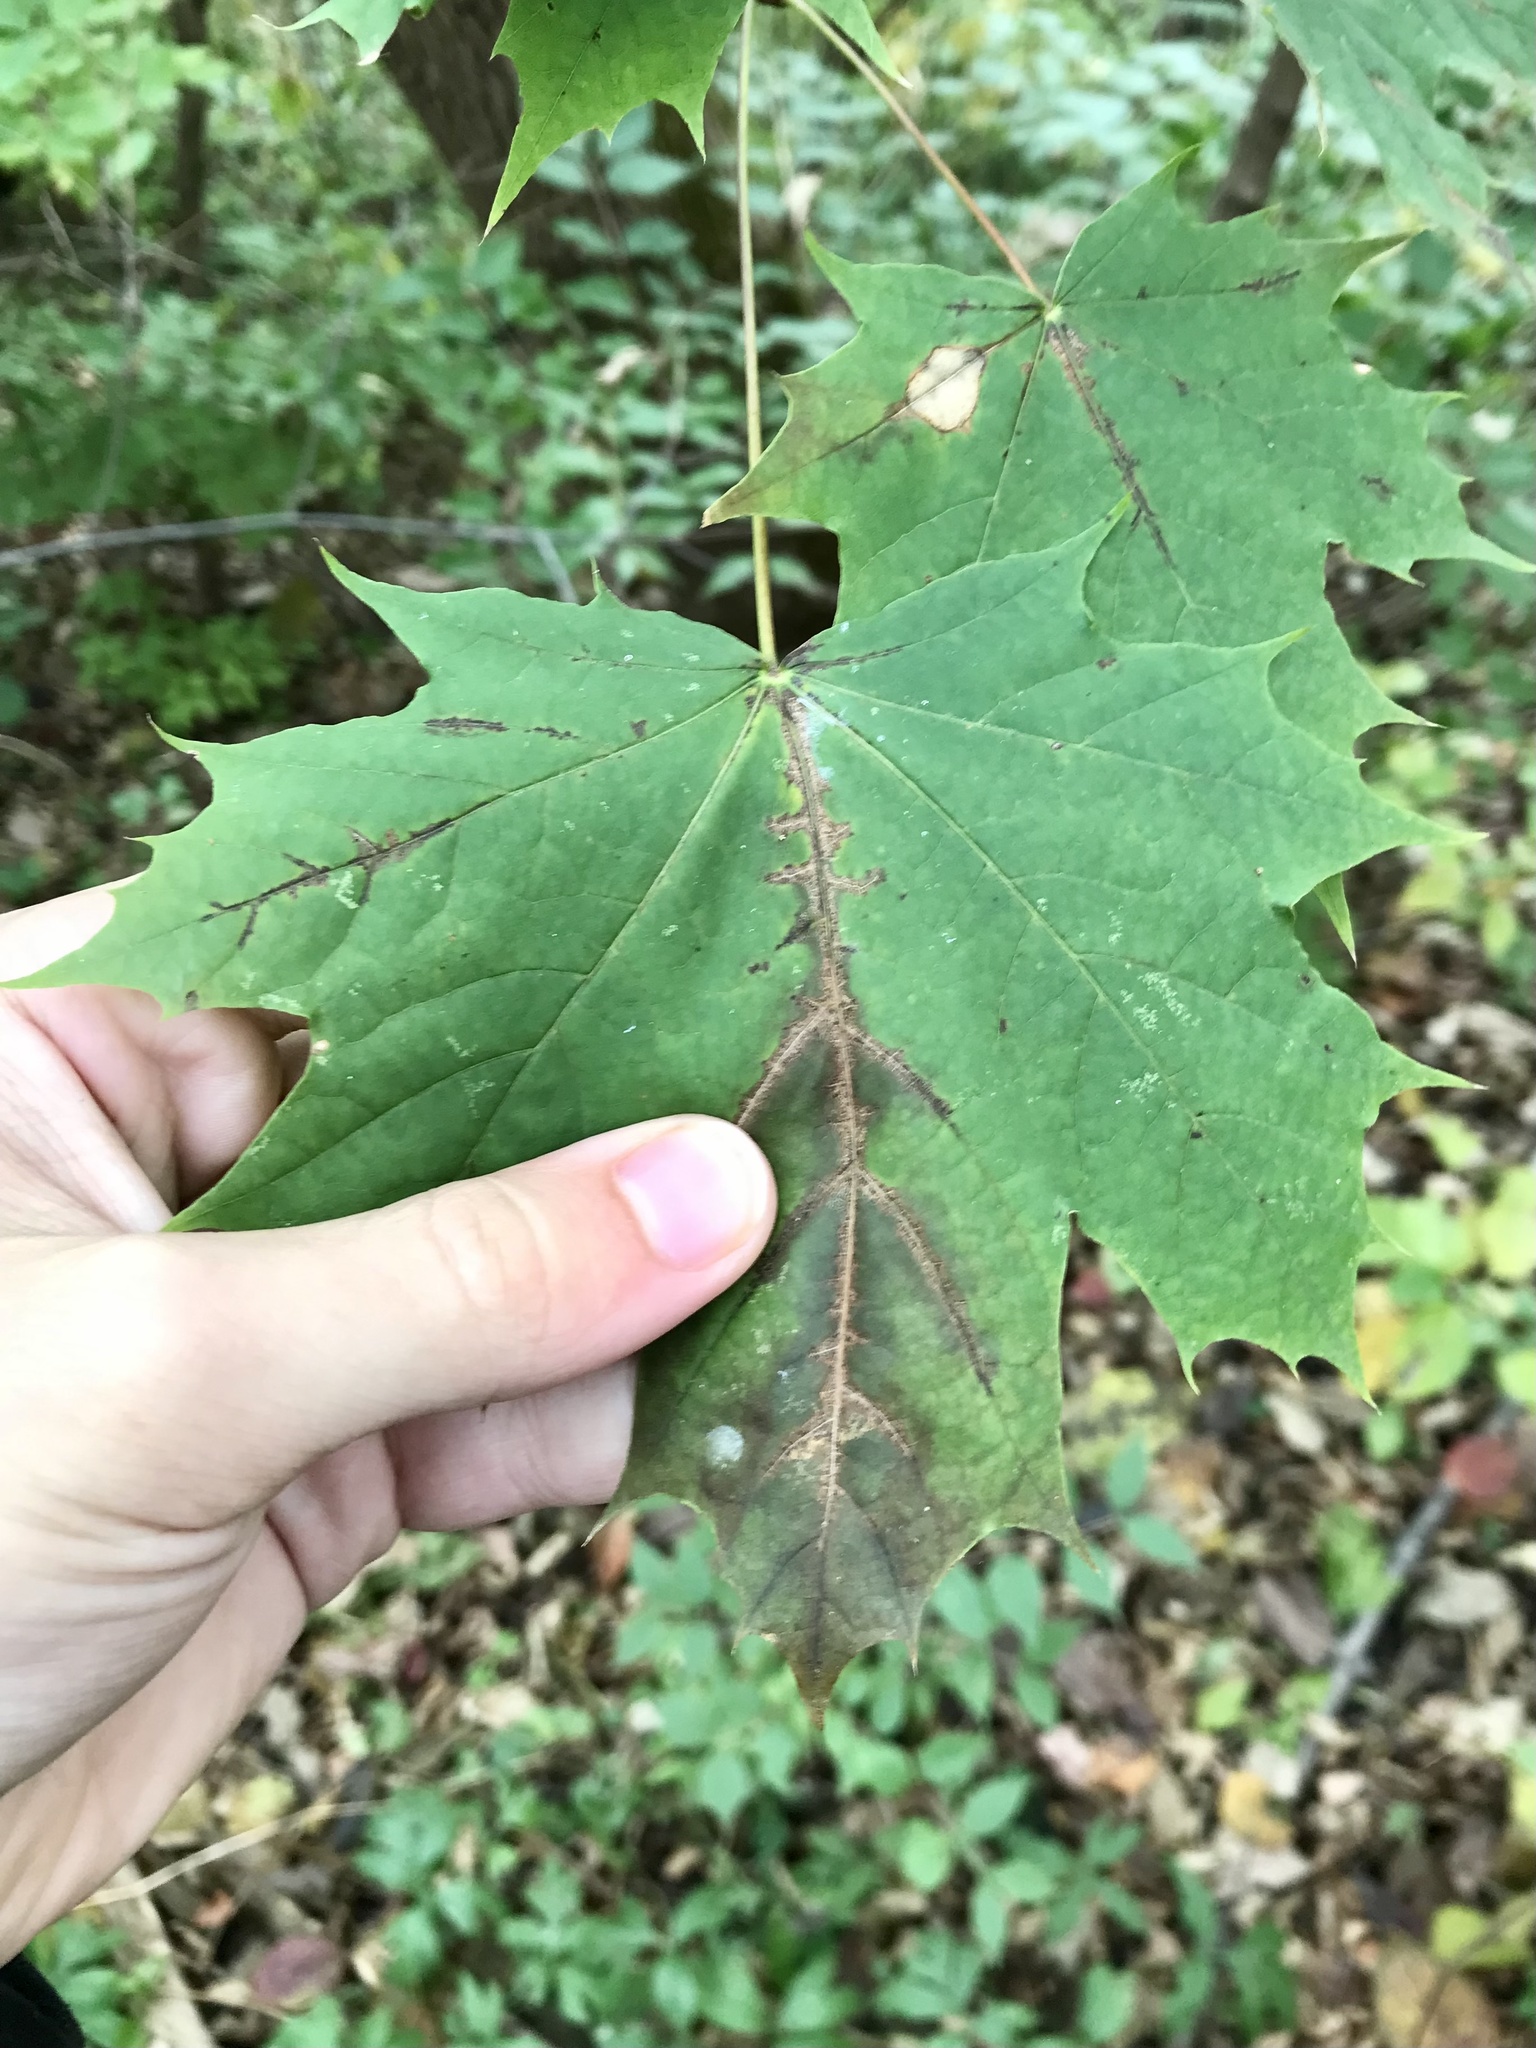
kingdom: Plantae
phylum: Tracheophyta
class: Magnoliopsida
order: Sapindales
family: Sapindaceae
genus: Acer
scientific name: Acer platanoides
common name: Norway maple
